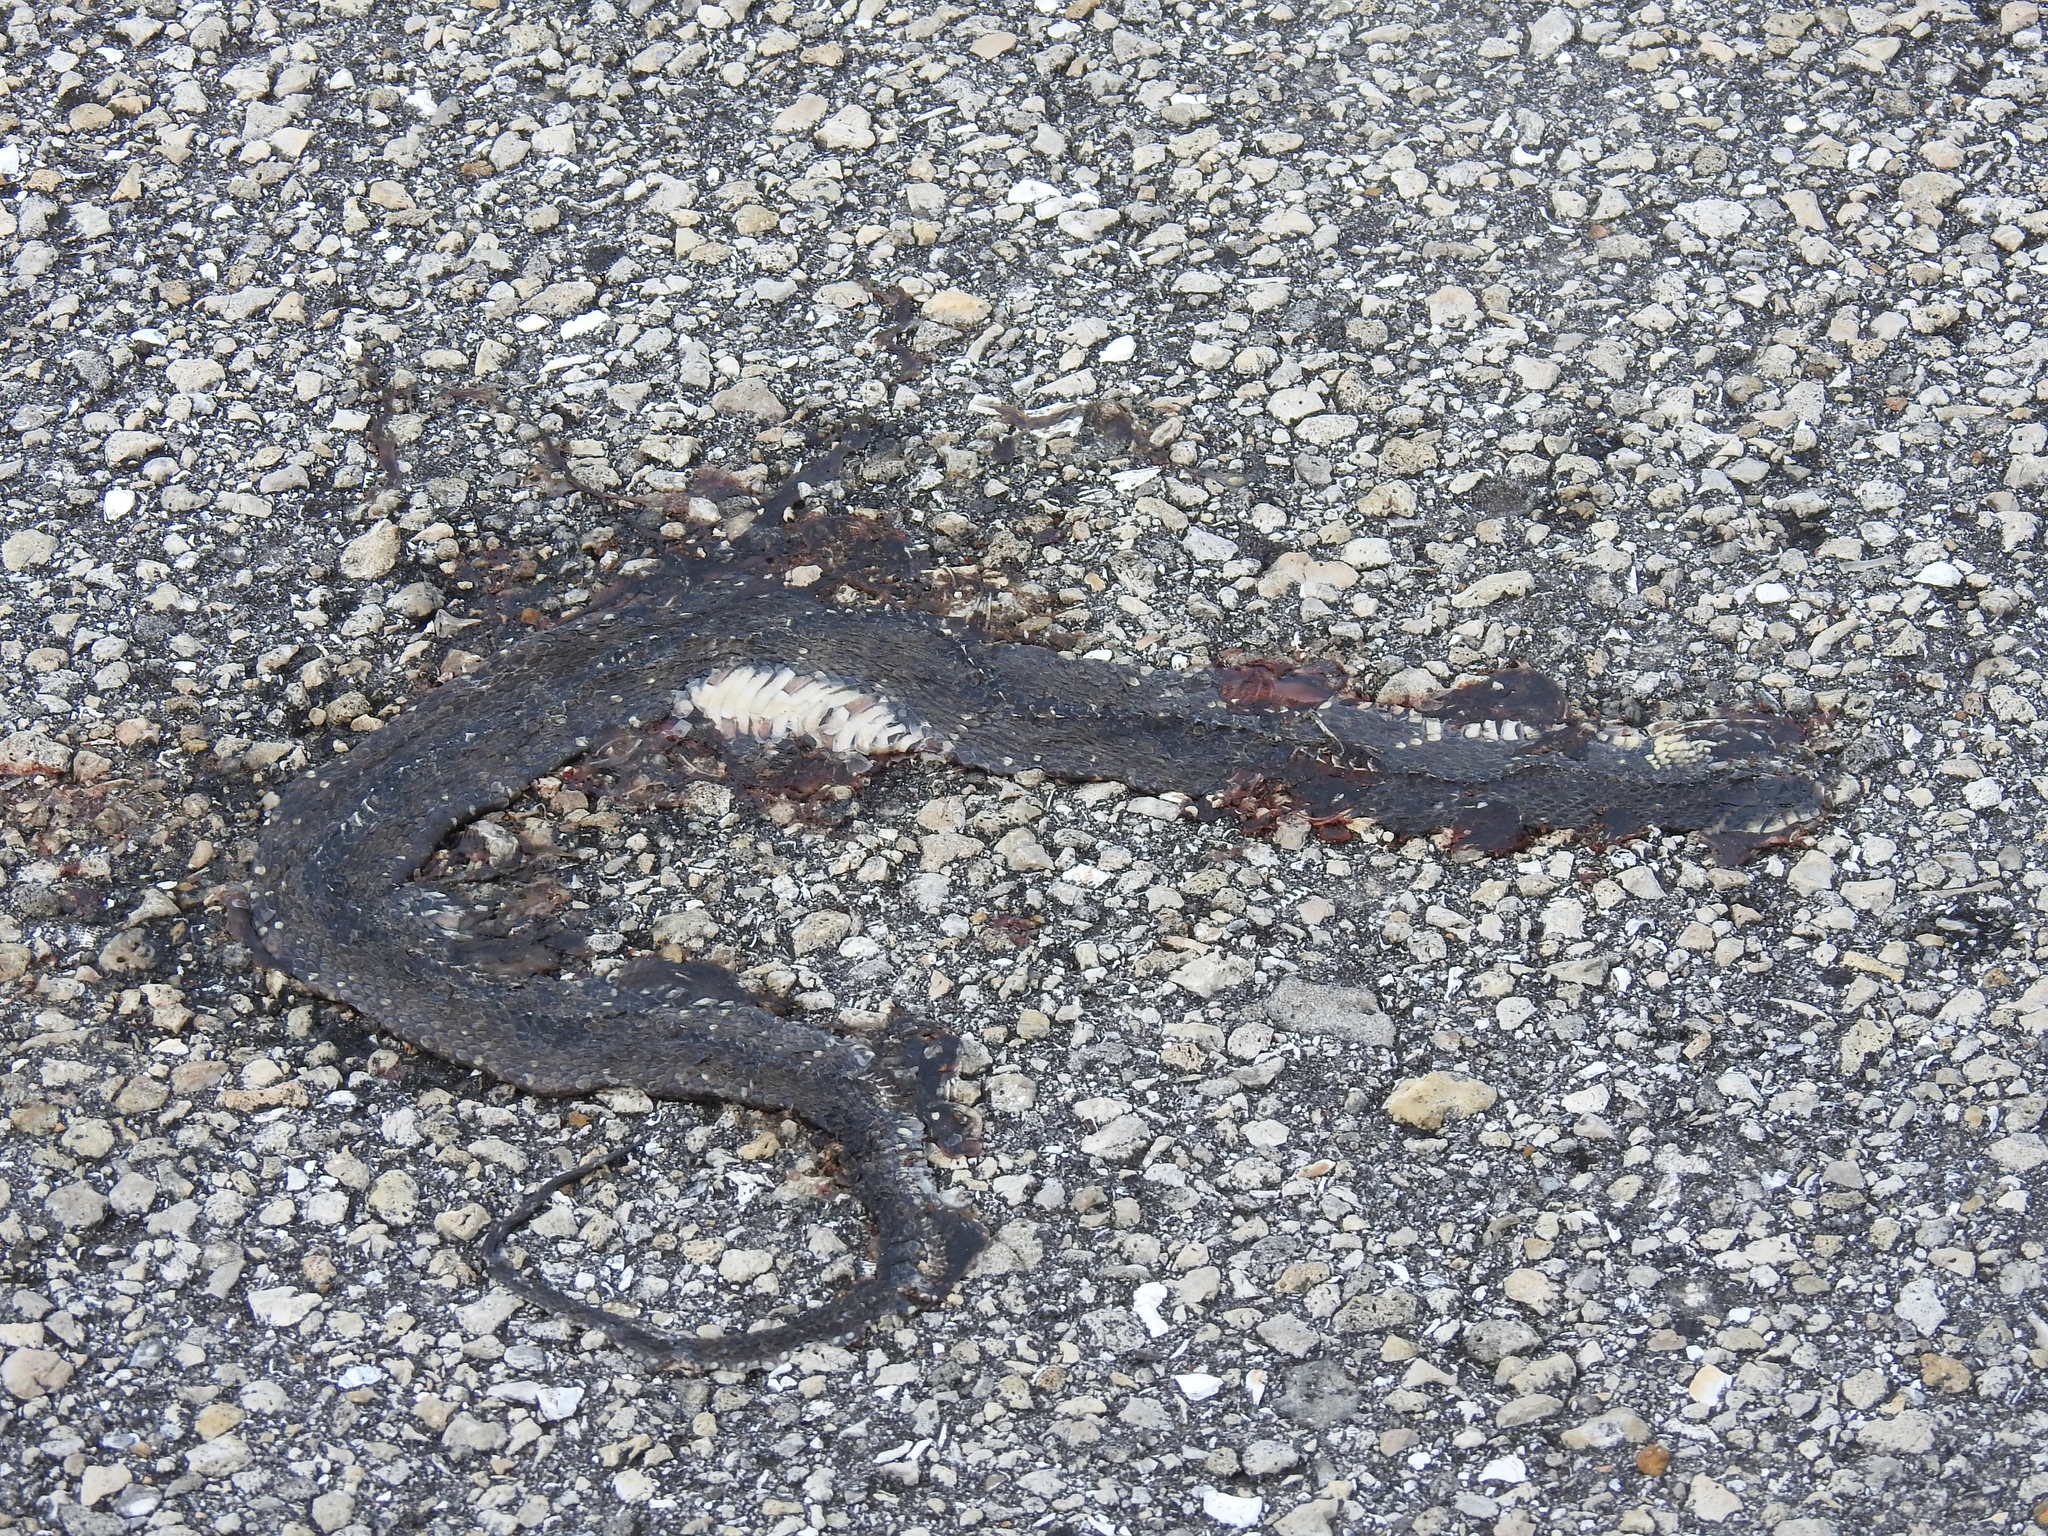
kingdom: Animalia
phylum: Chordata
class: Squamata
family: Colubridae
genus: Nerodia
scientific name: Nerodia fasciata
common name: Southern water snake
